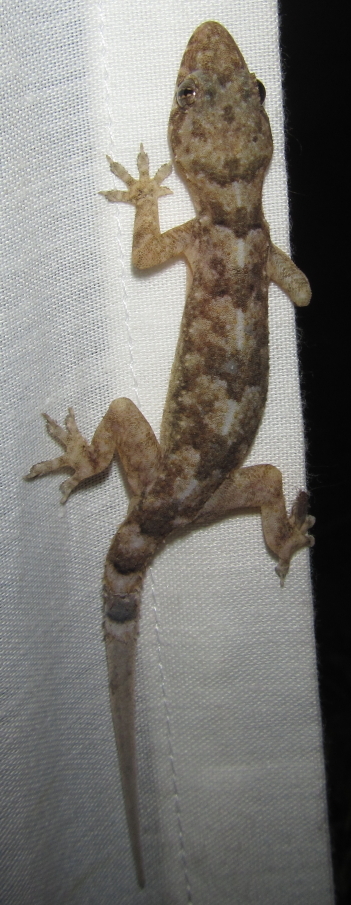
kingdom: Animalia
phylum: Chordata
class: Squamata
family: Gekkonidae
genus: Hemidactylus
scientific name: Hemidactylus mabouia
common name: House gecko
